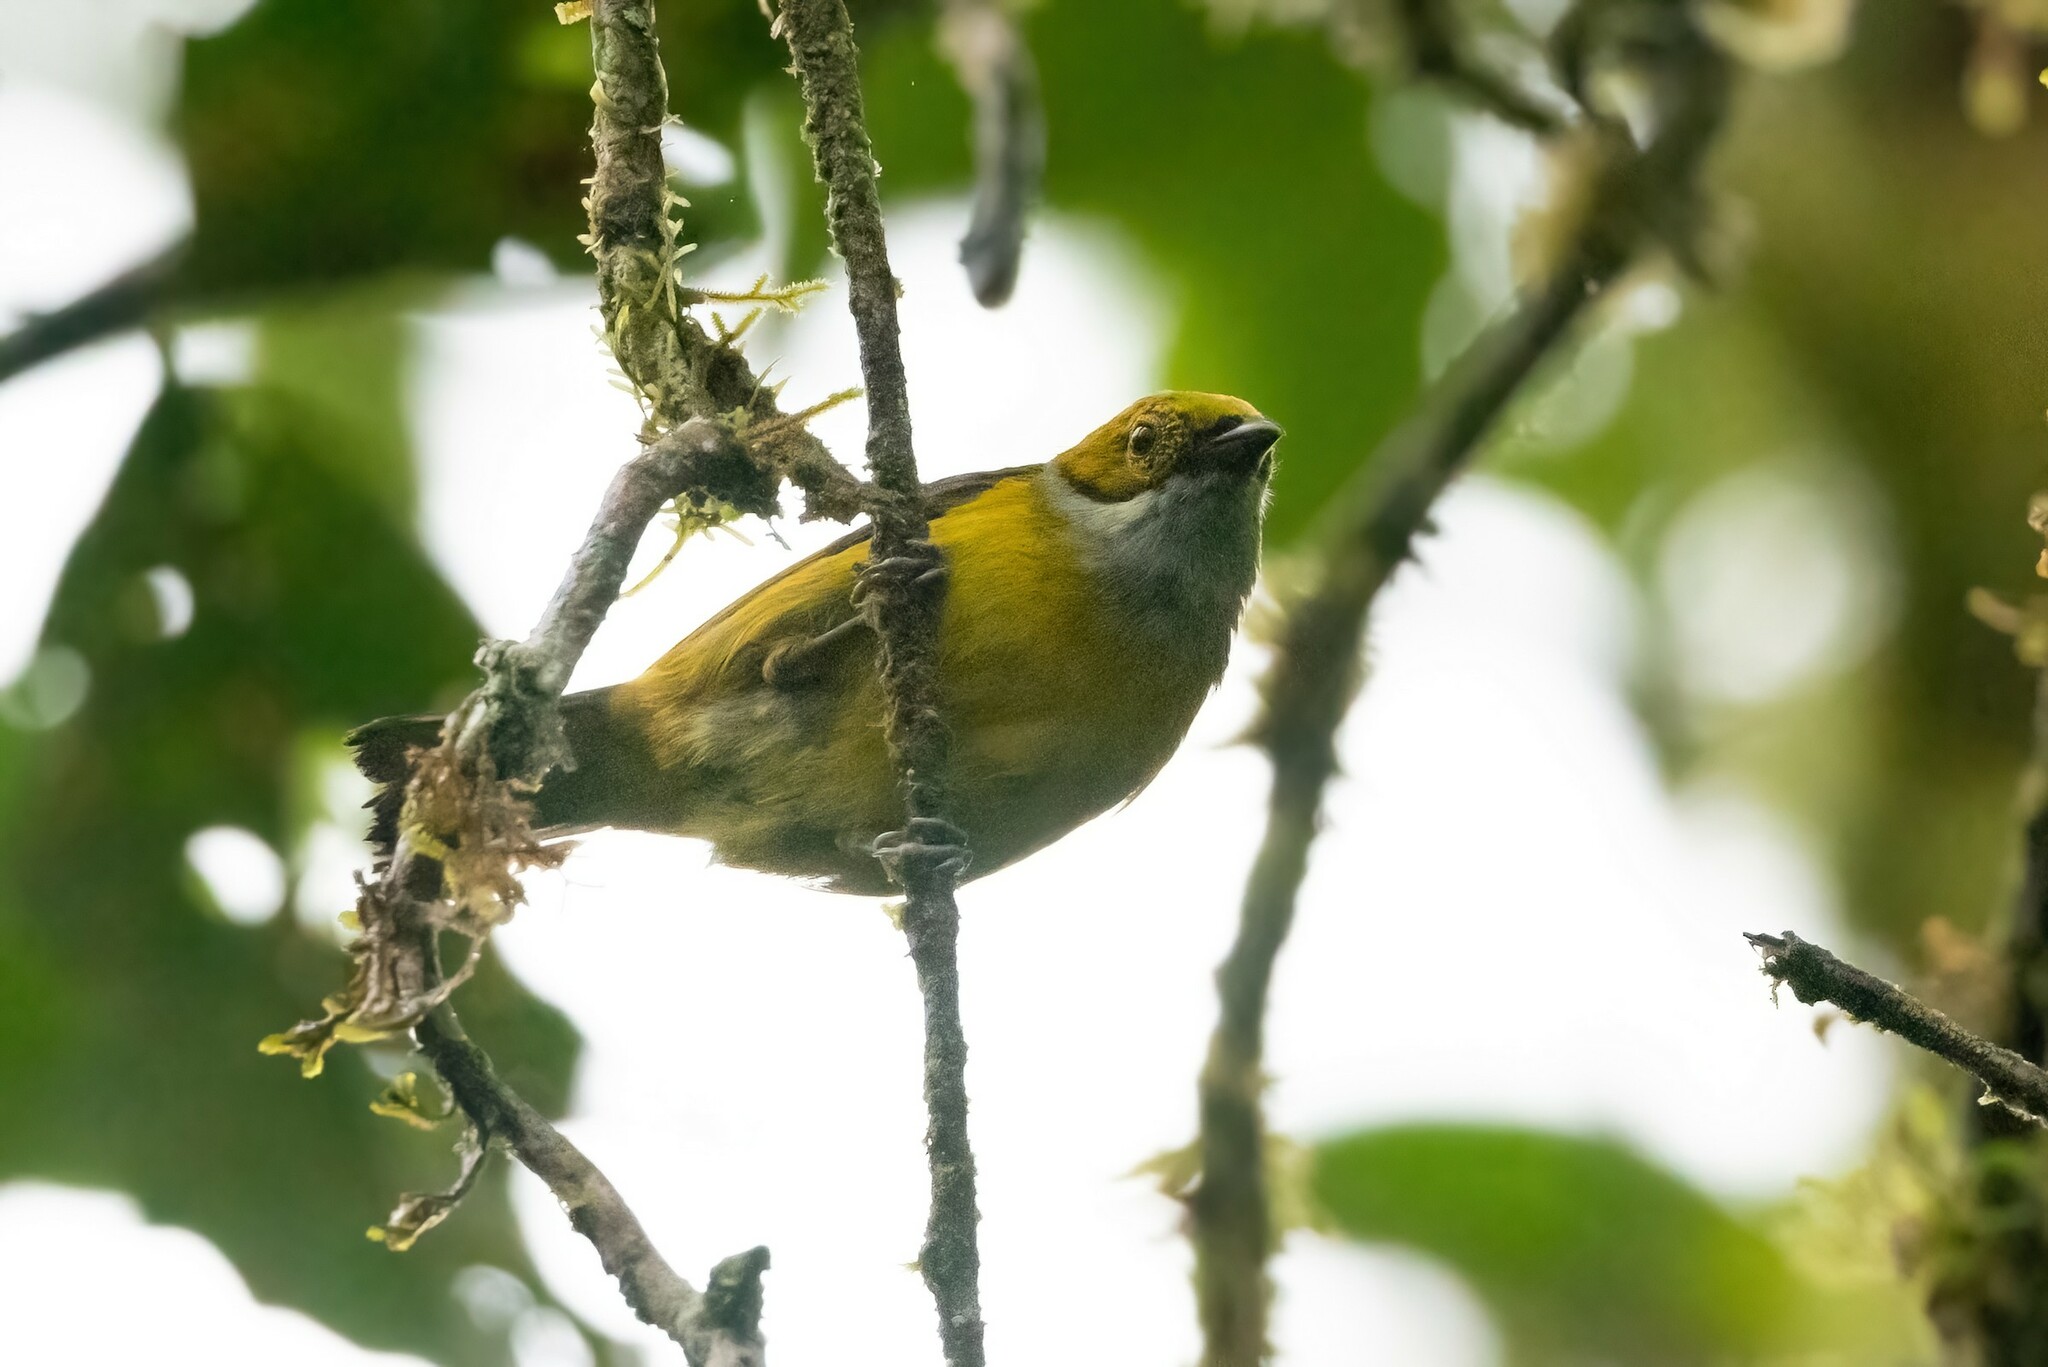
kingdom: Animalia
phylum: Chordata
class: Aves
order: Passeriformes
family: Thraupidae
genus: Tangara
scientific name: Tangara icterocephala
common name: Silver-throated tanager
